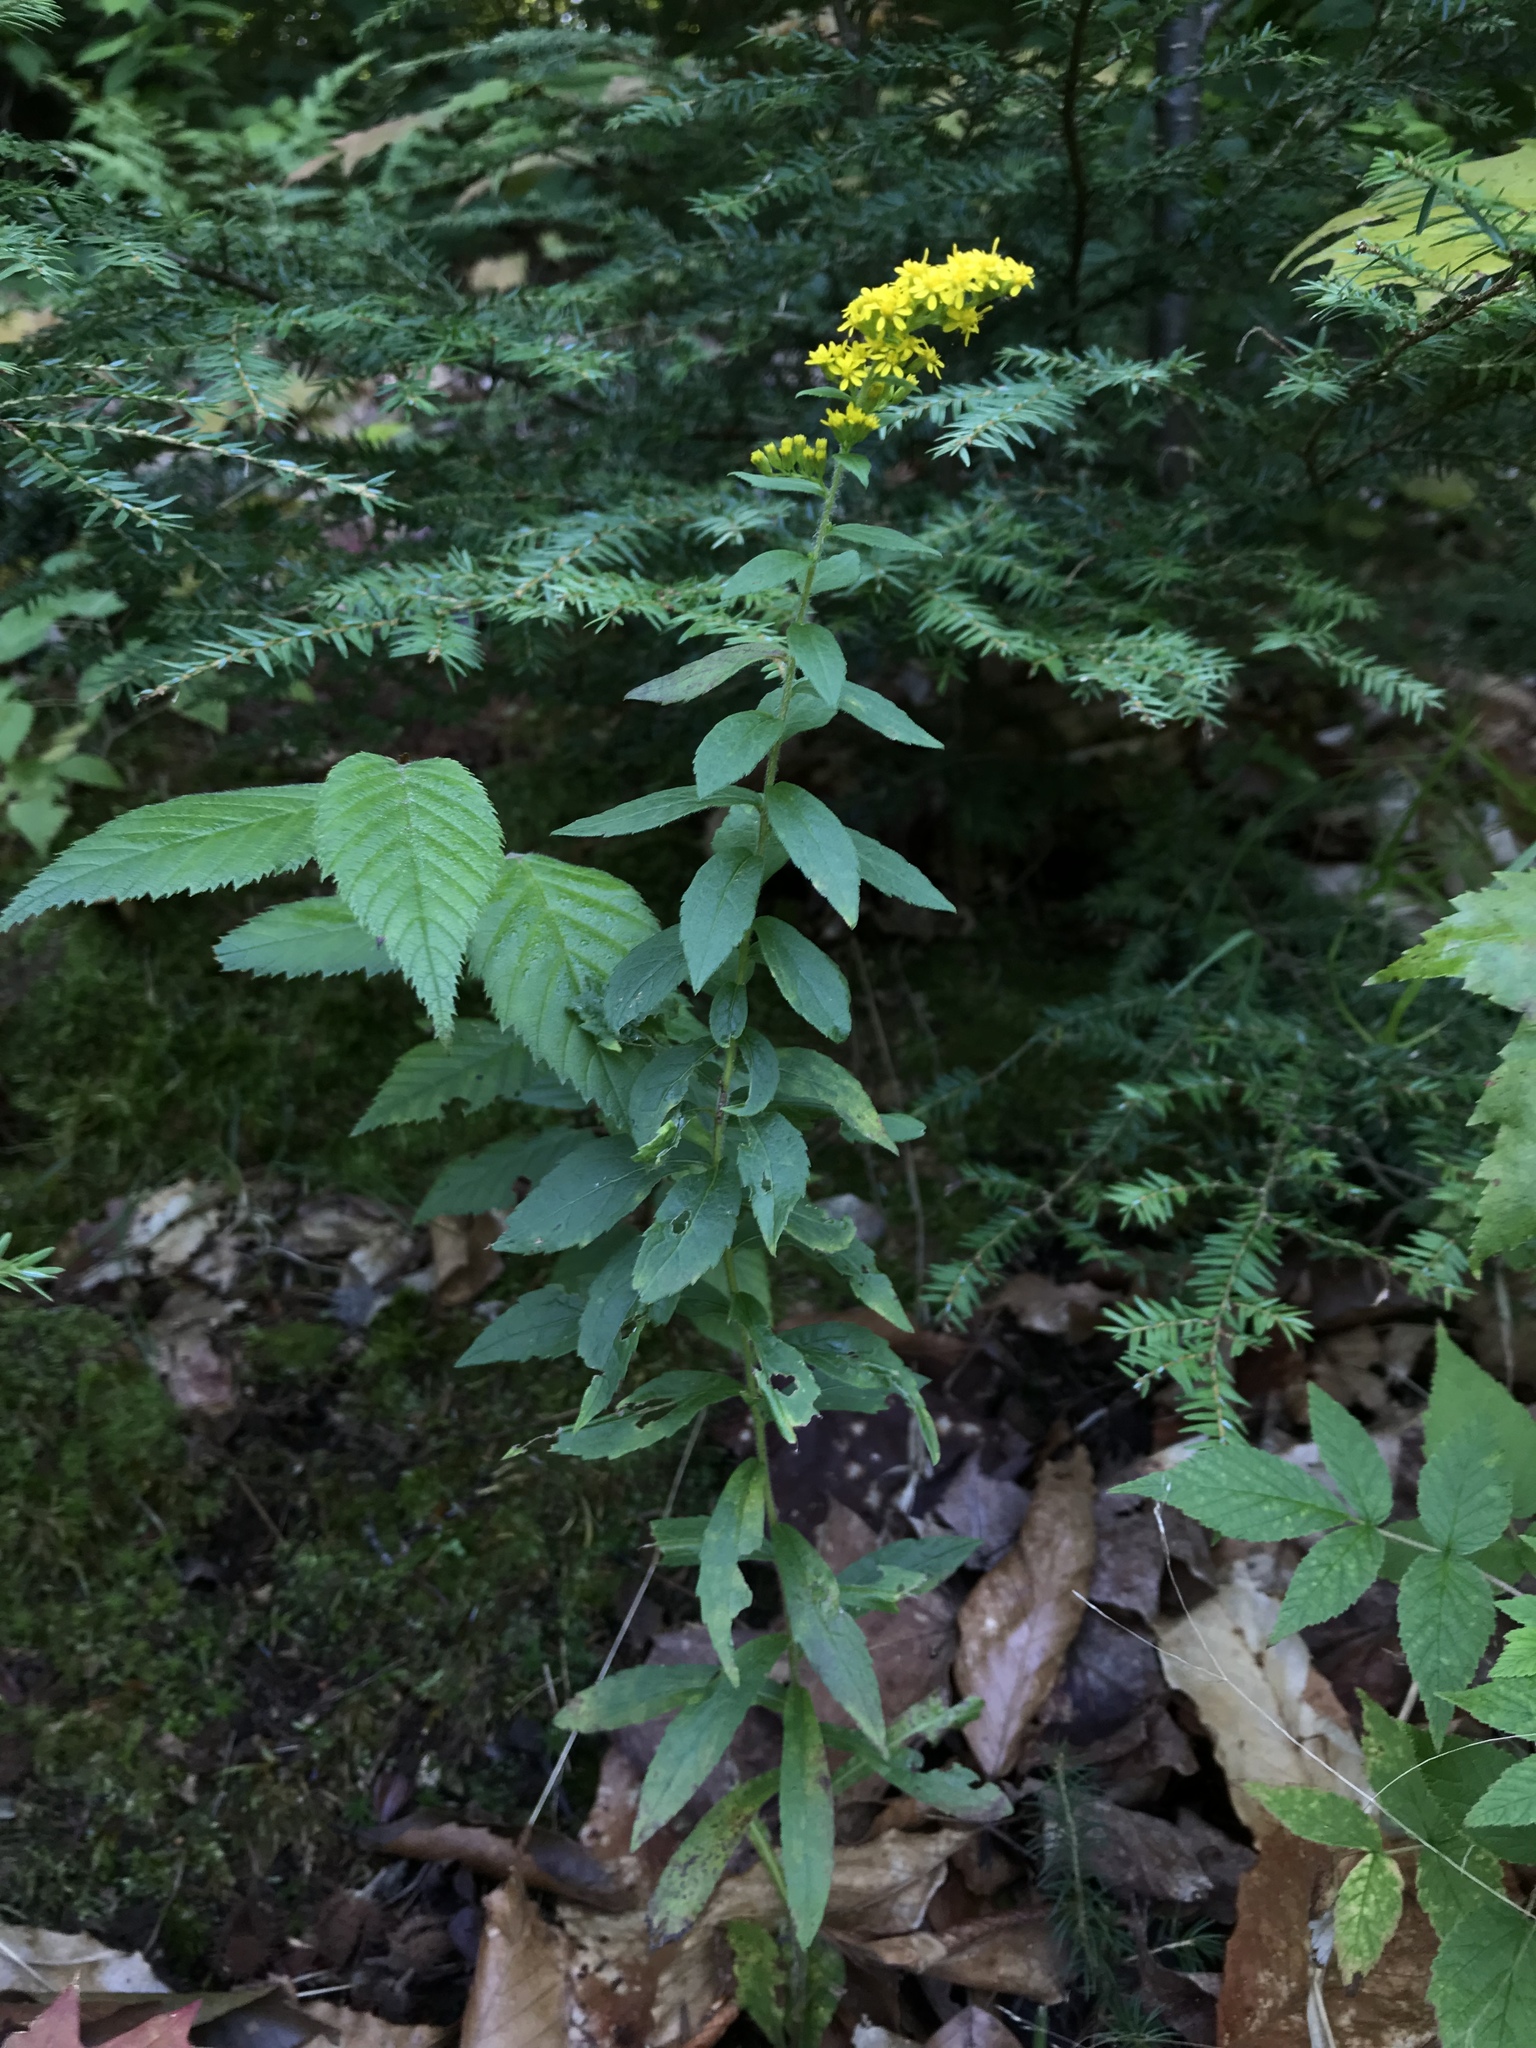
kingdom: Plantae
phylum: Tracheophyta
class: Magnoliopsida
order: Asterales
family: Asteraceae
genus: Solidago
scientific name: Solidago rugosa
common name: Rough-stemmed goldenrod
